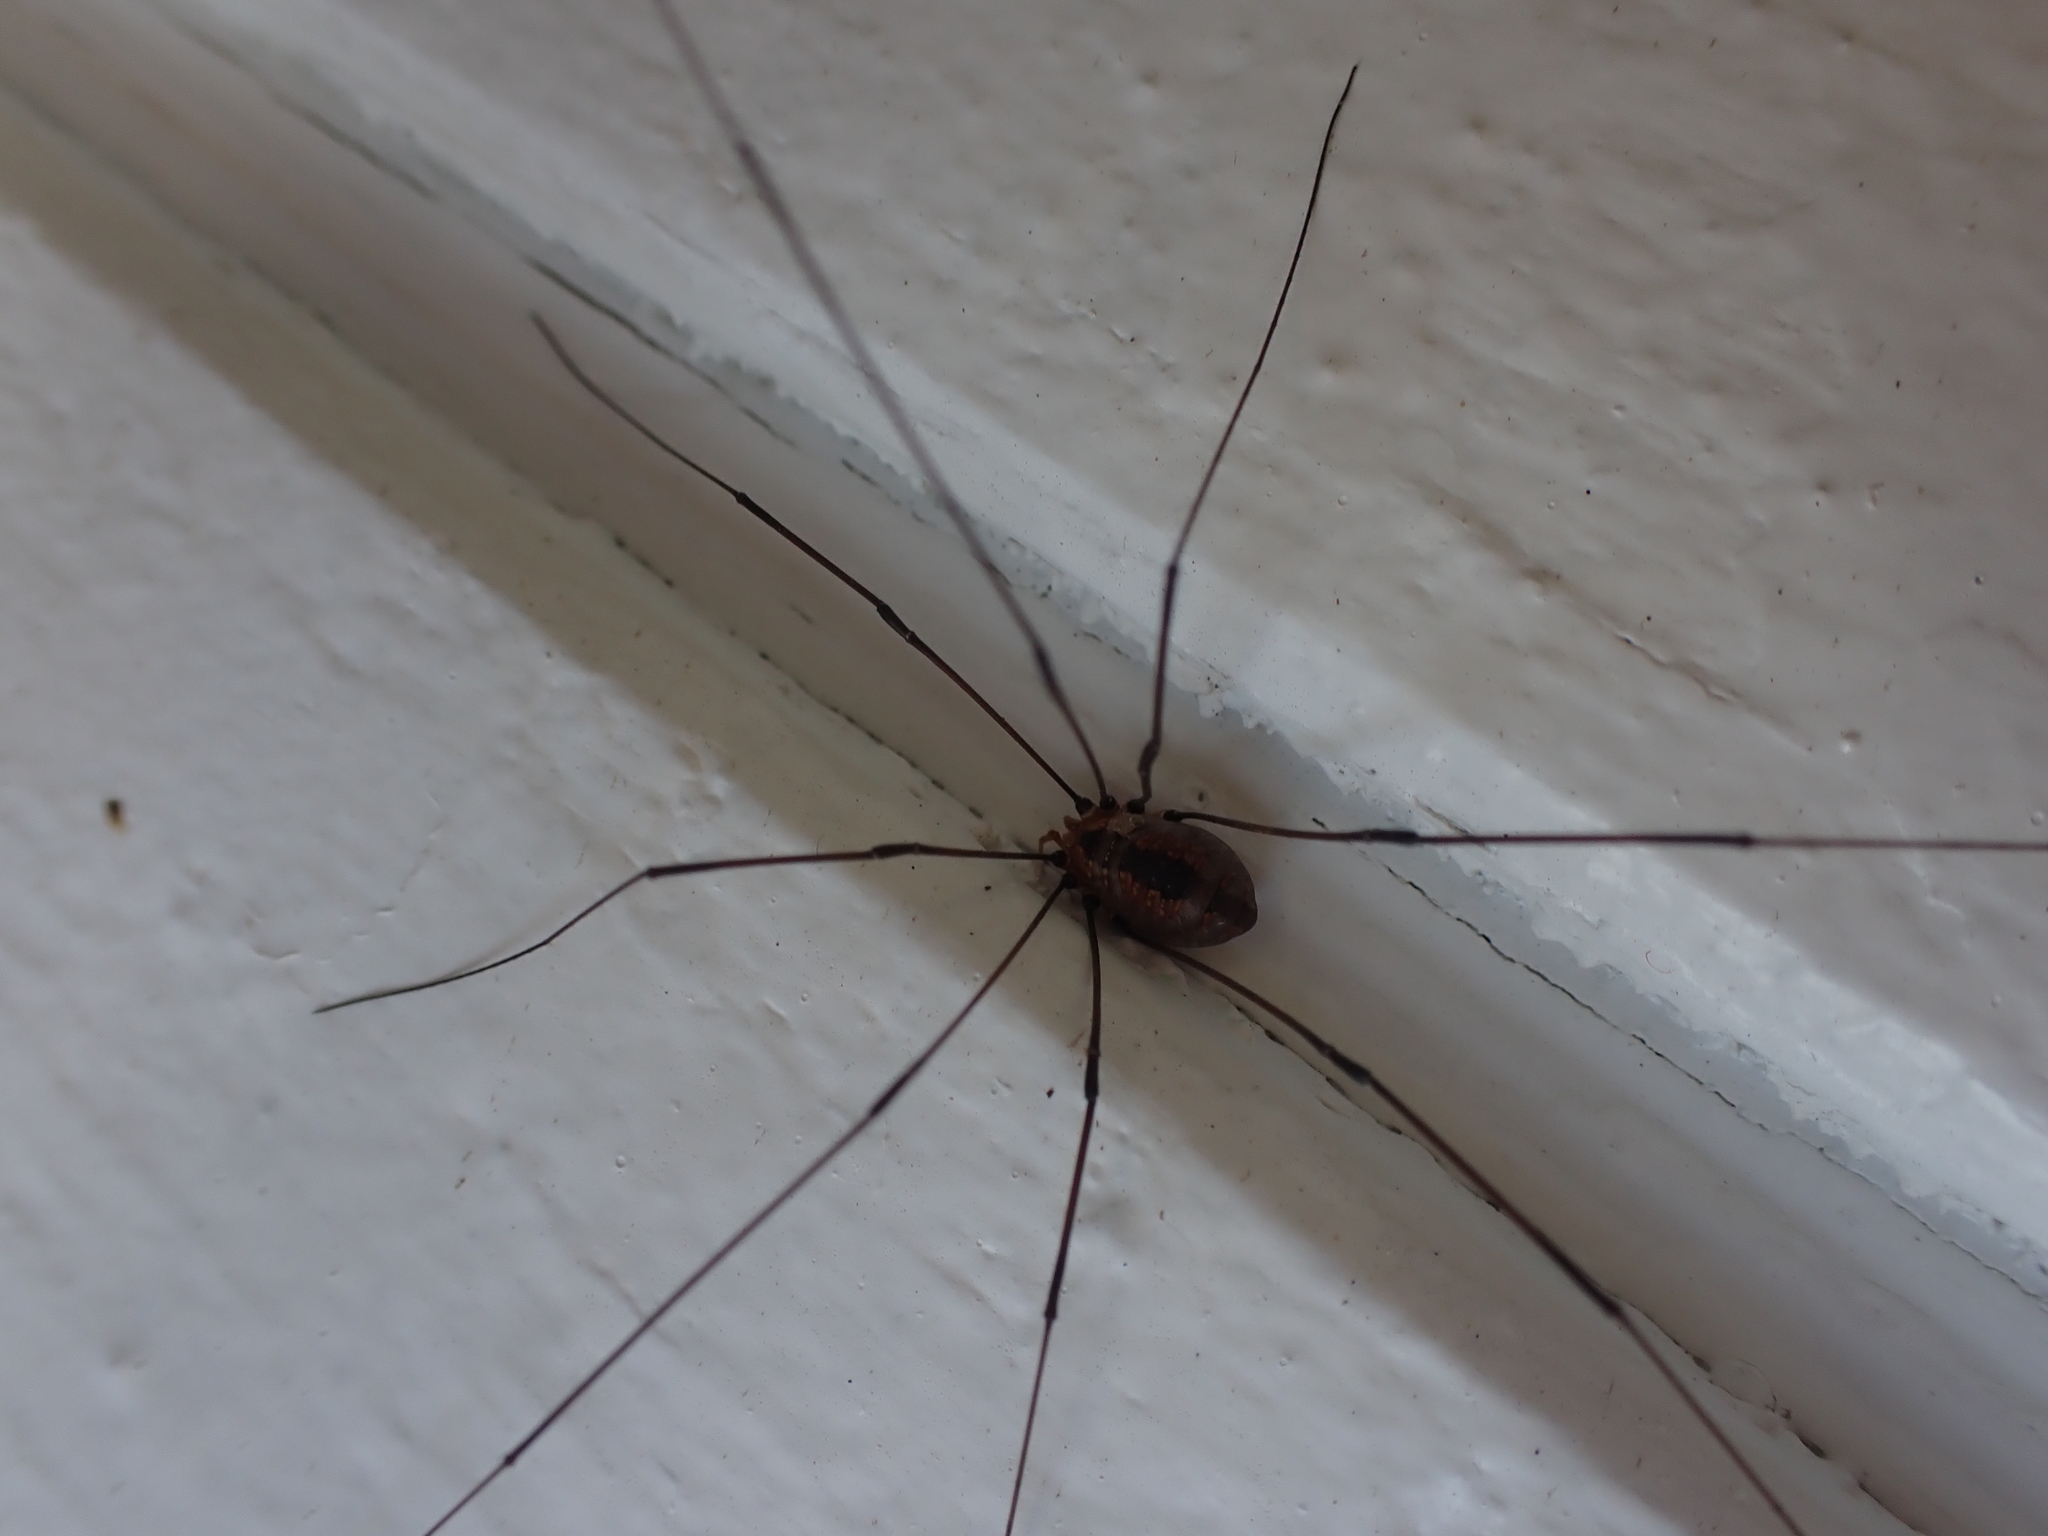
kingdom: Animalia
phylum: Arthropoda
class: Arachnida
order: Opiliones
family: Sclerosomatidae
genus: Leiobunum
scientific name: Leiobunum vittatum
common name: Eastern harvestman
